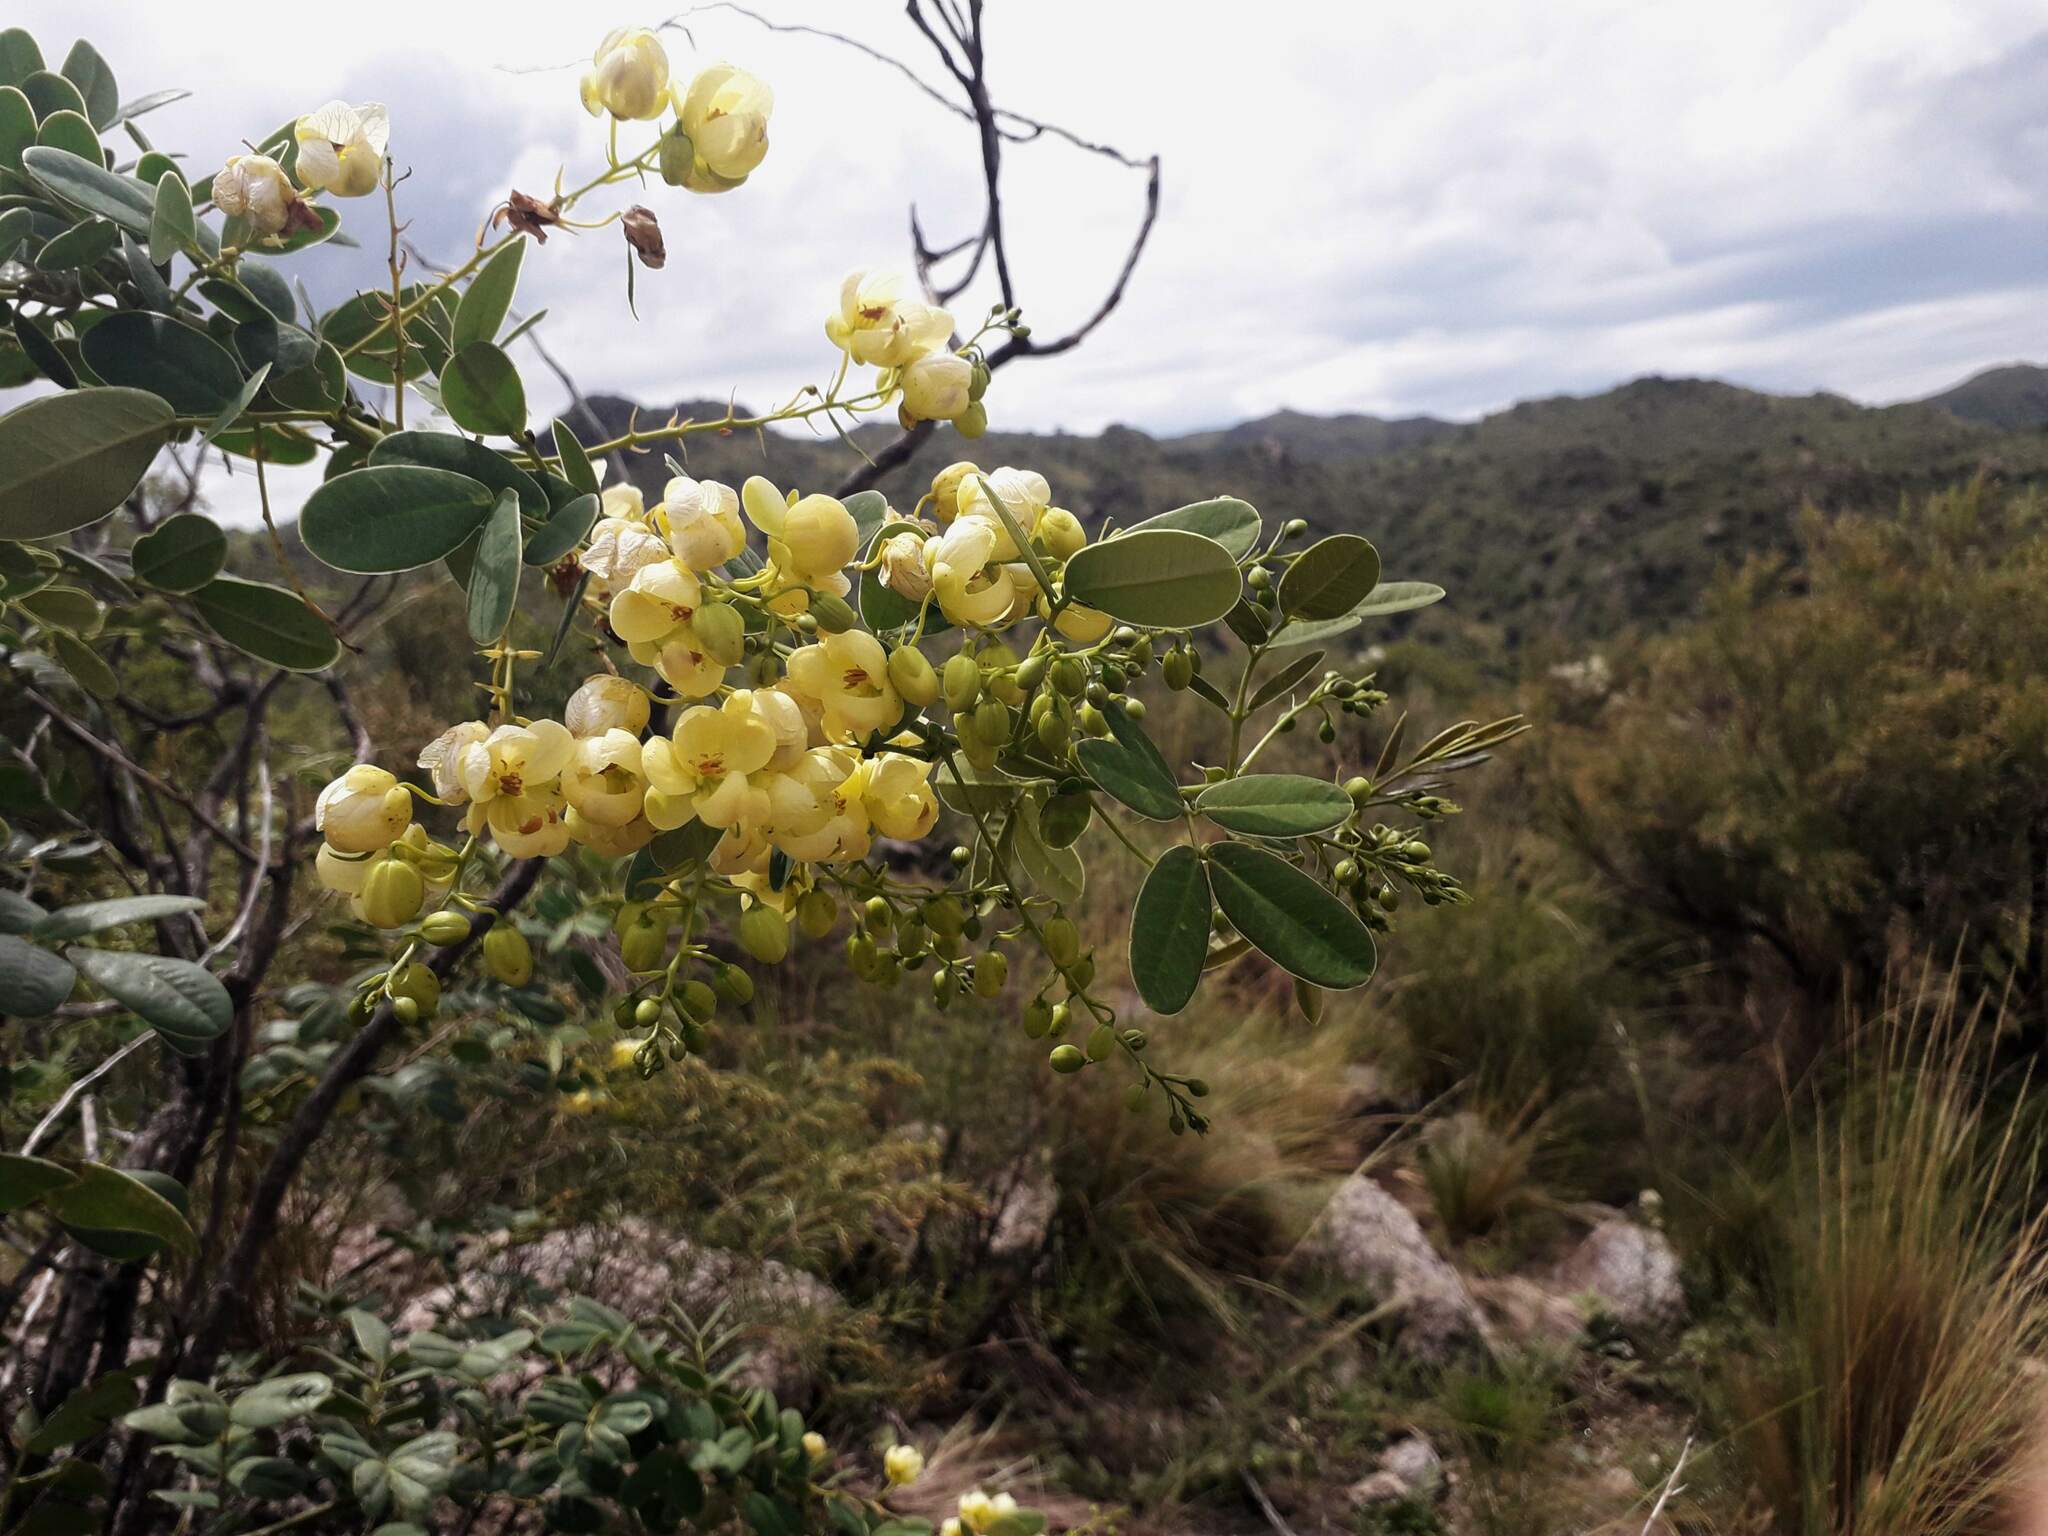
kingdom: Plantae
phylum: Tracheophyta
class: Magnoliopsida
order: Fabales
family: Fabaceae
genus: Senna
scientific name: Senna subulata
